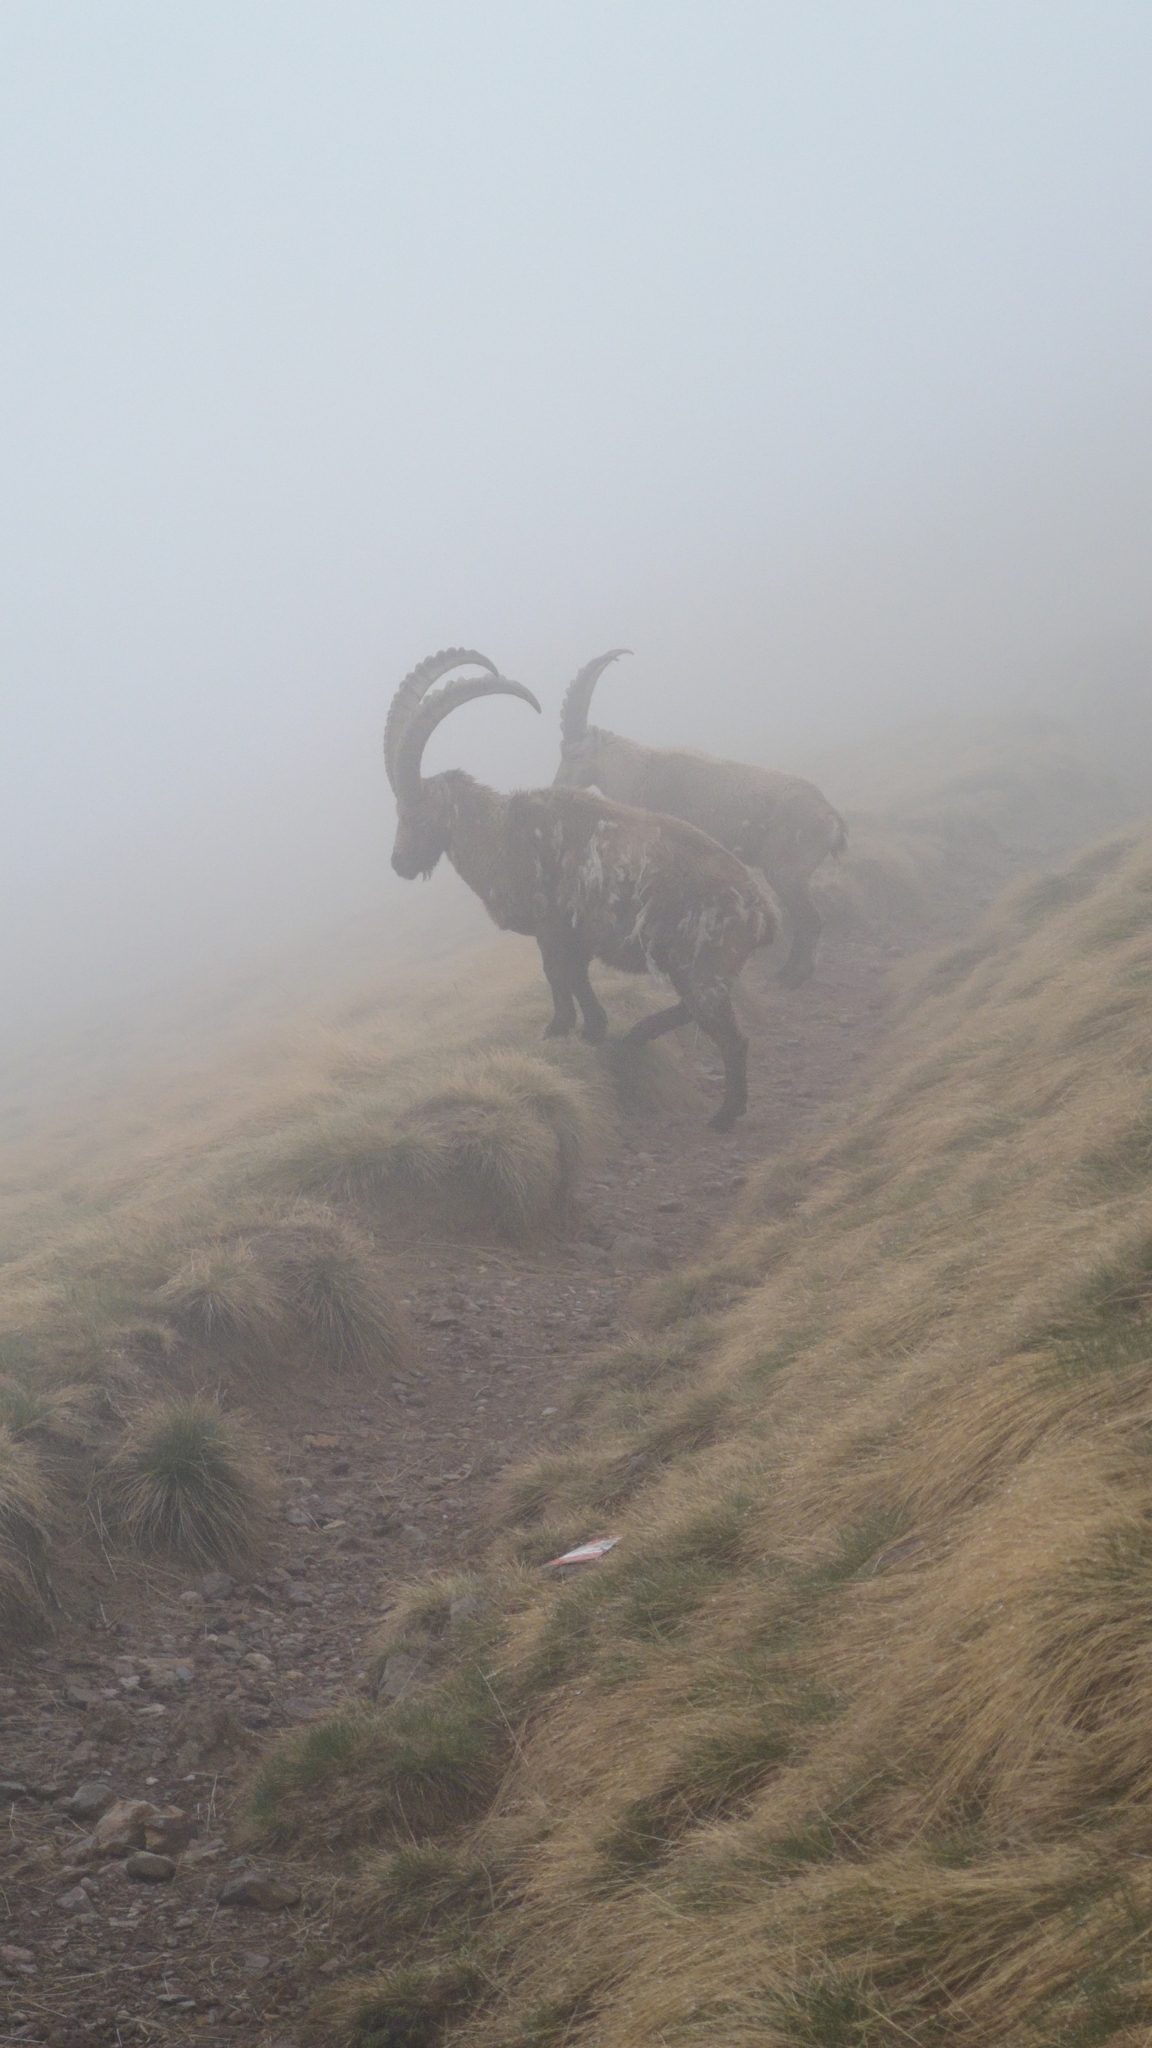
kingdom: Animalia
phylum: Chordata
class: Mammalia
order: Artiodactyla
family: Bovidae
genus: Capra
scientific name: Capra ibex
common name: Alpine ibex
